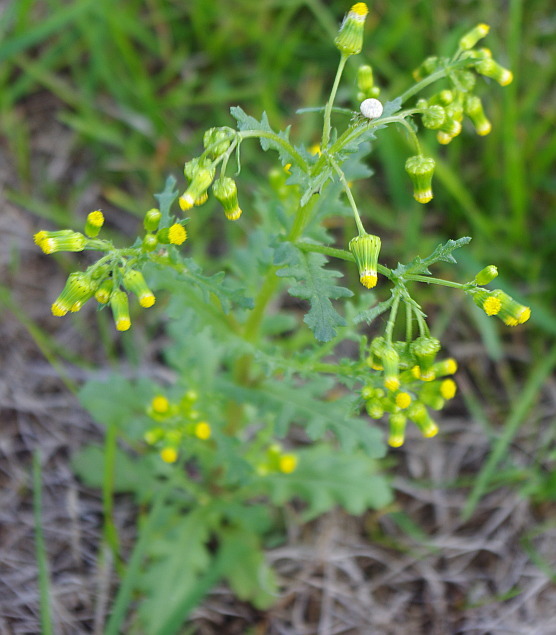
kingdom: Plantae
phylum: Tracheophyta
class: Magnoliopsida
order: Asterales
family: Asteraceae
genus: Senecio
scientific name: Senecio vulgaris
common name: Old-man-in-the-spring
